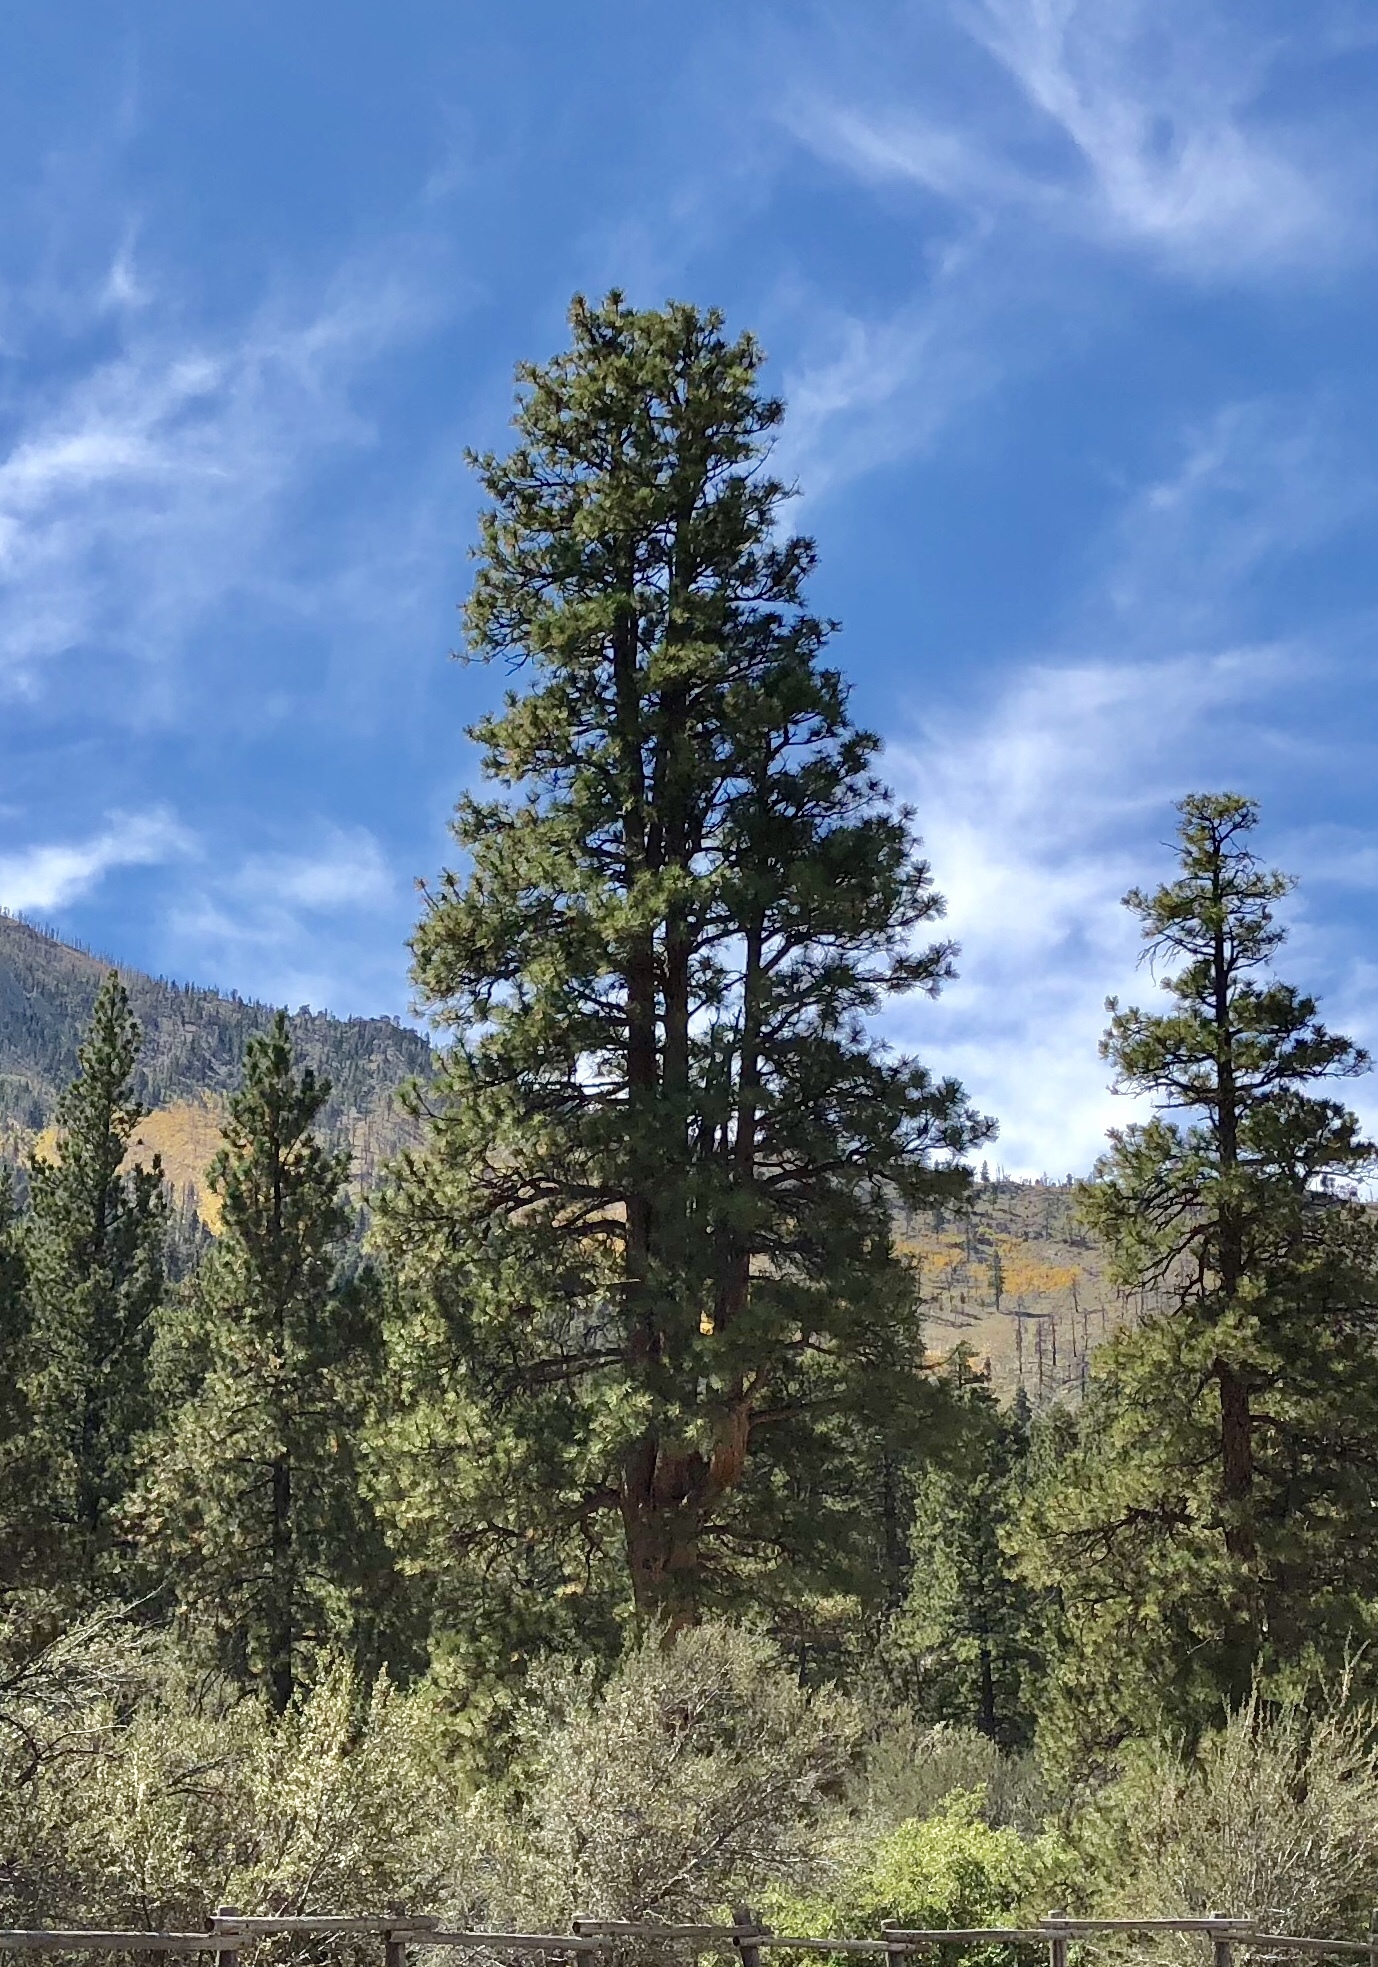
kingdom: Plantae
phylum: Tracheophyta
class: Pinopsida
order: Pinales
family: Pinaceae
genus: Pinus
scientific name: Pinus ponderosa
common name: Western yellow-pine
